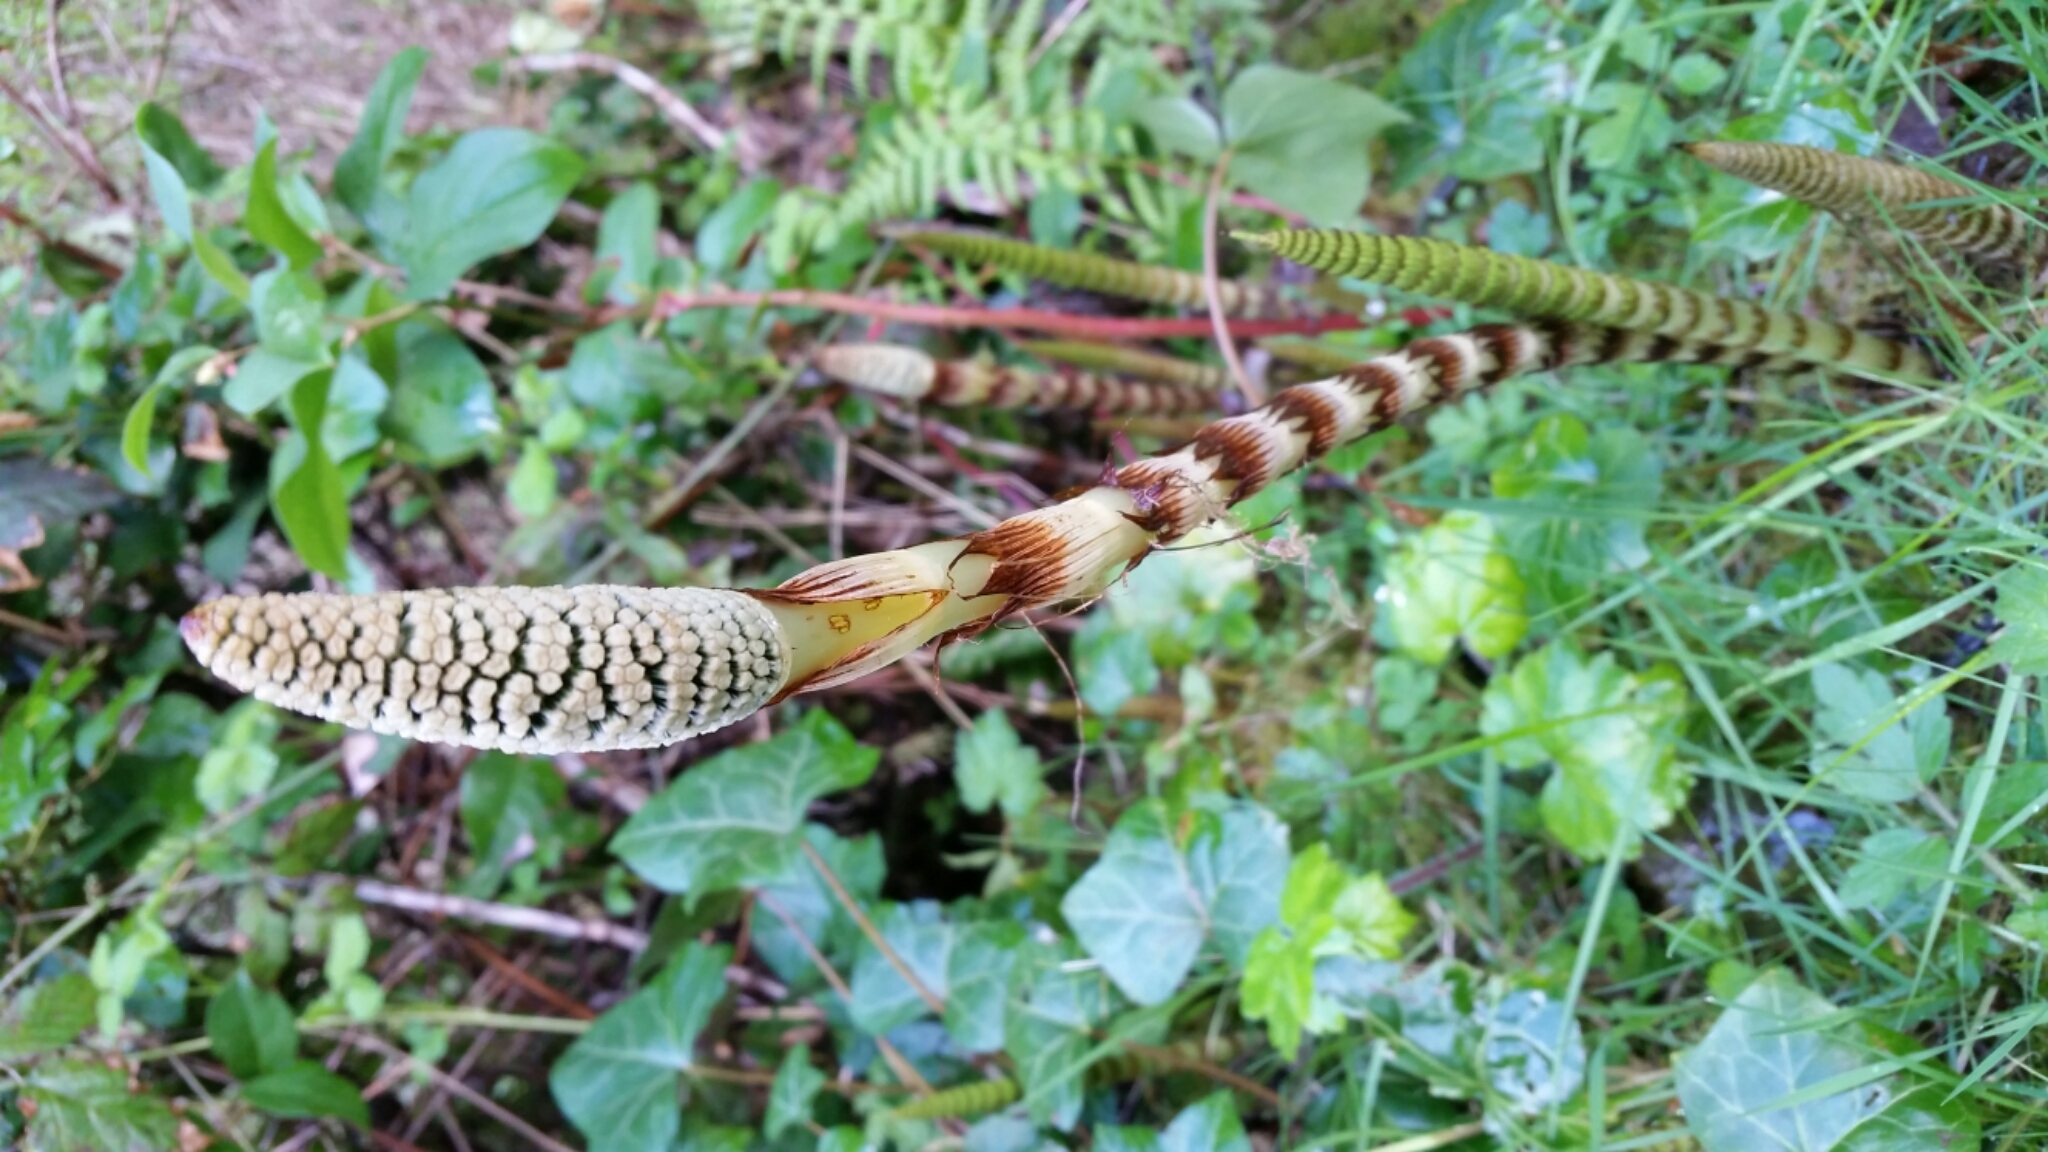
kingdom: Plantae
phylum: Tracheophyta
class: Polypodiopsida
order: Equisetales
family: Equisetaceae
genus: Equisetum
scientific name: Equisetum braunii
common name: Braun's horsetail
